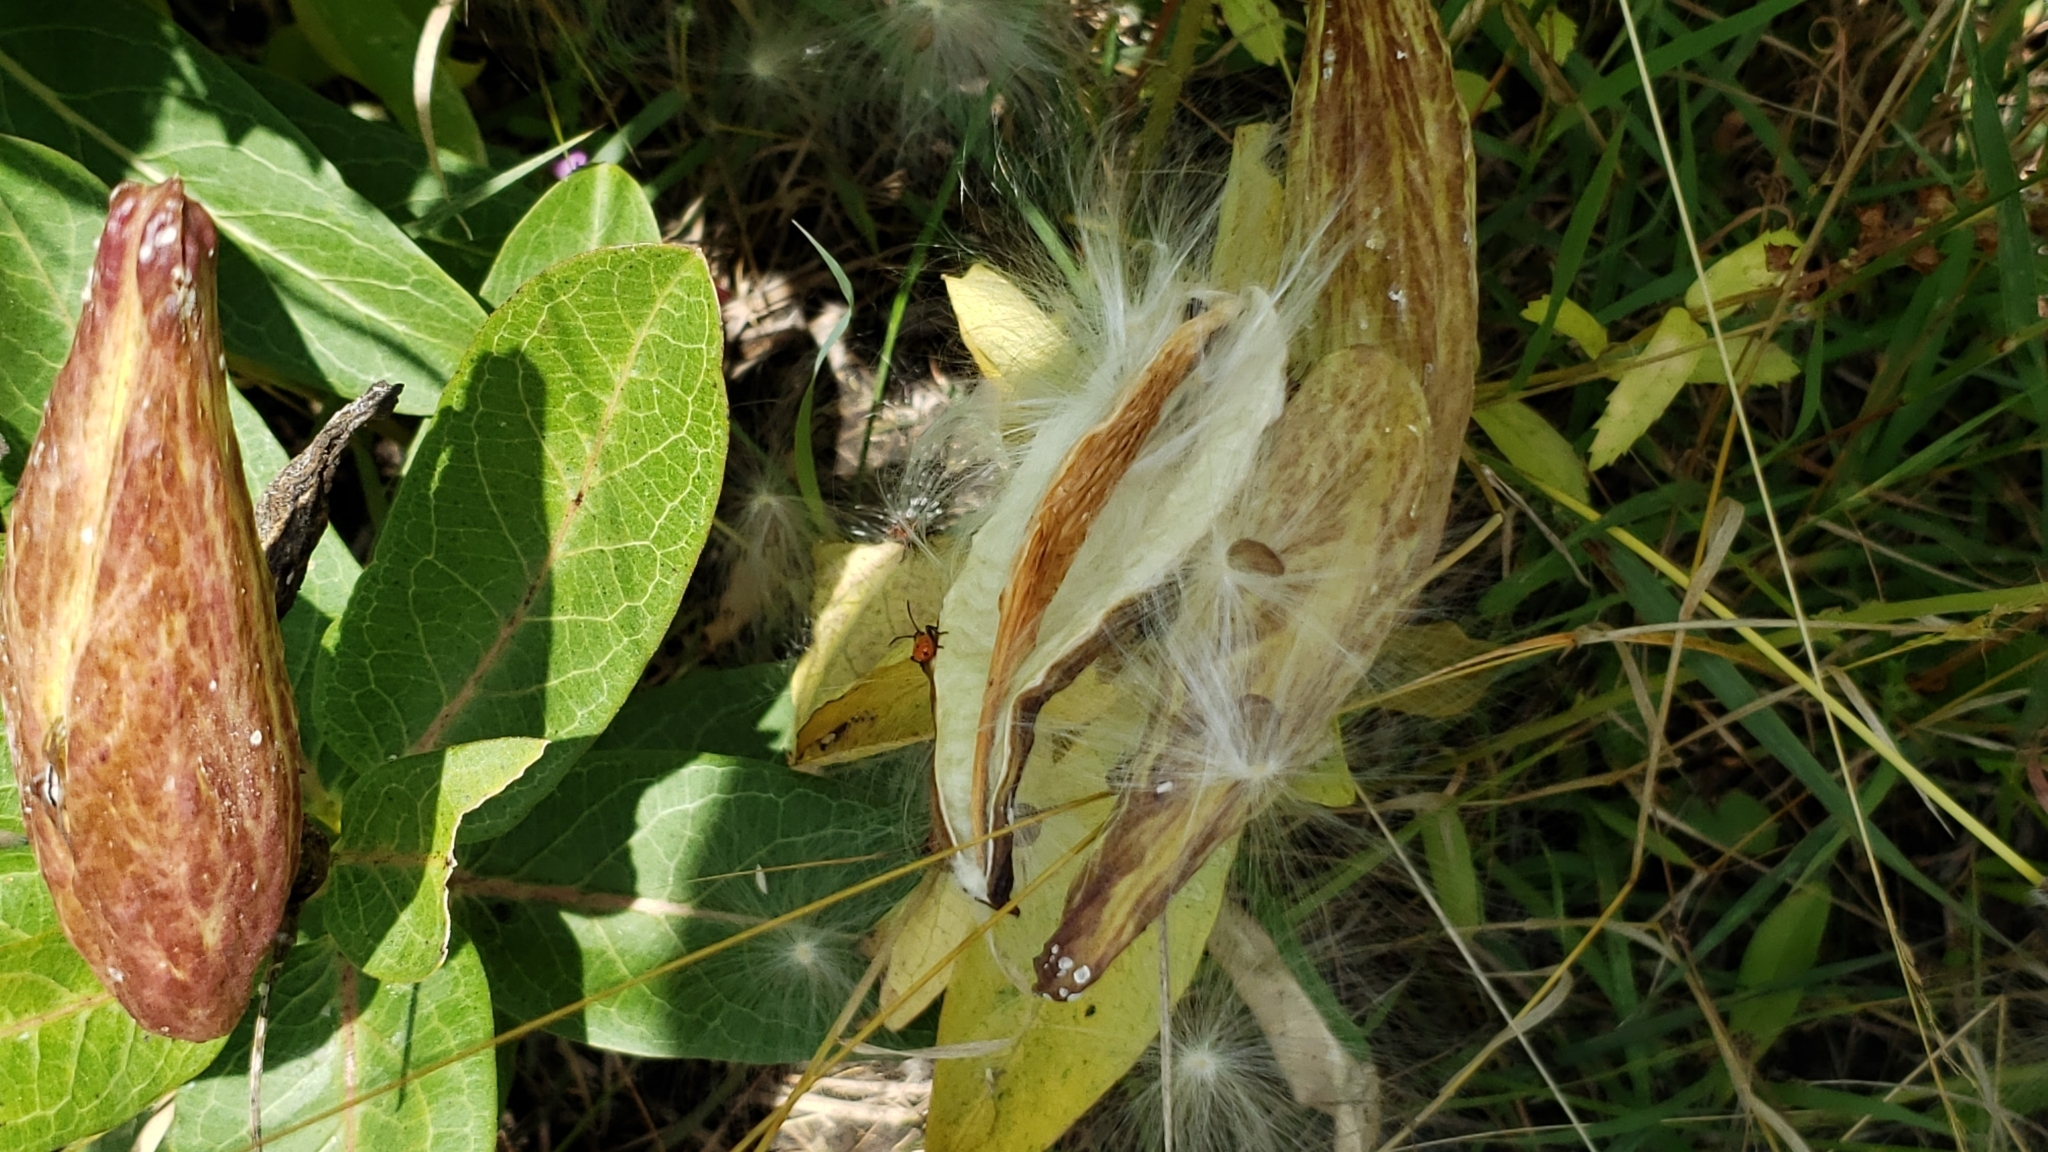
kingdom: Plantae
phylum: Tracheophyta
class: Magnoliopsida
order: Gentianales
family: Apocynaceae
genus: Asclepias
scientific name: Asclepias viridis
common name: Antelope-horns
